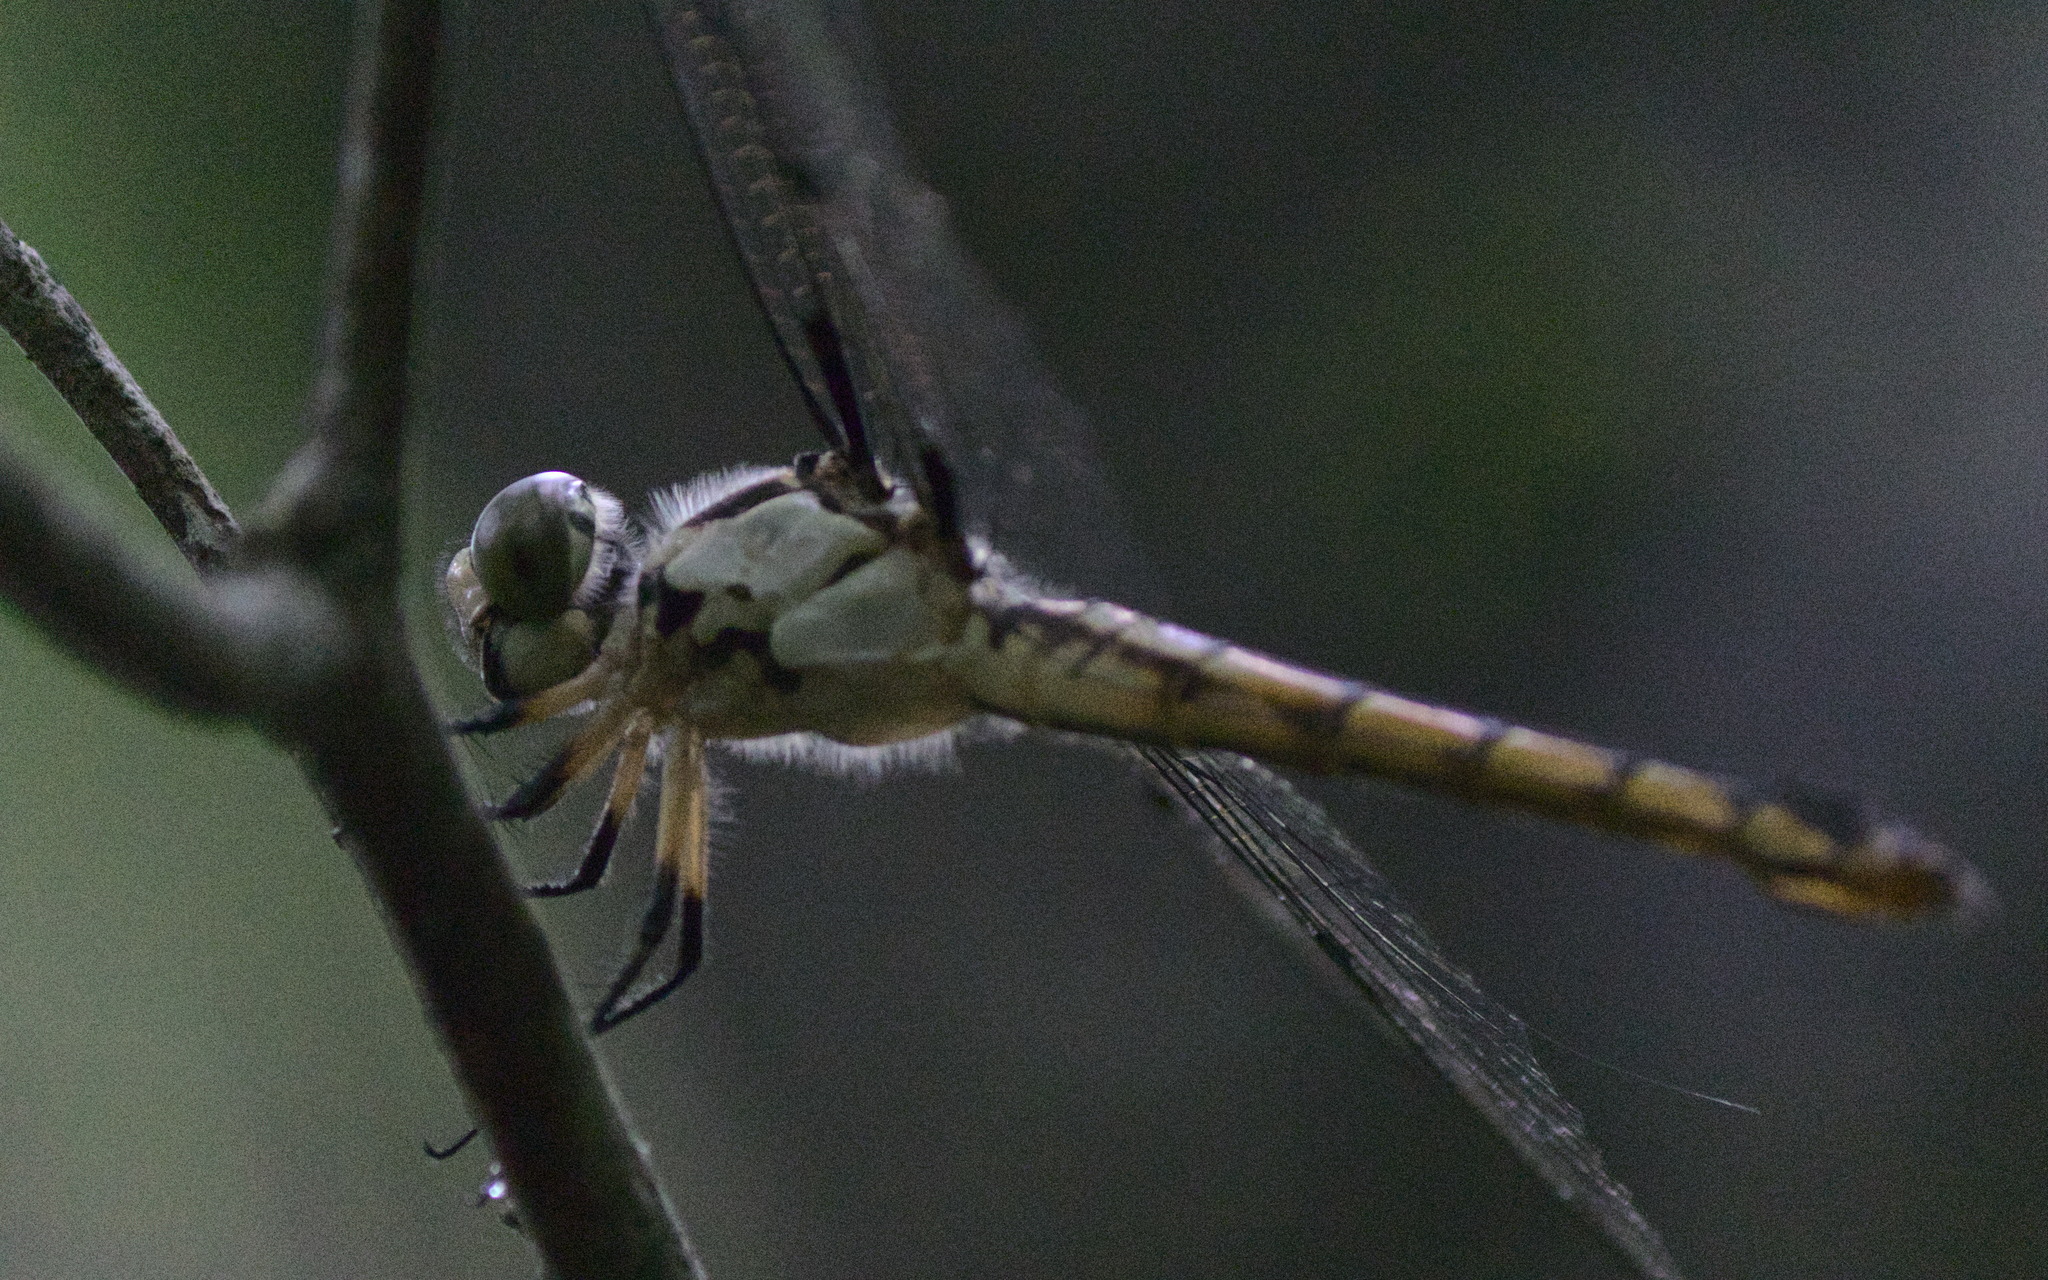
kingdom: Animalia
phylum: Arthropoda
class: Insecta
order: Odonata
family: Libellulidae
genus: Libellula
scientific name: Libellula vibrans
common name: Great blue skimmer
